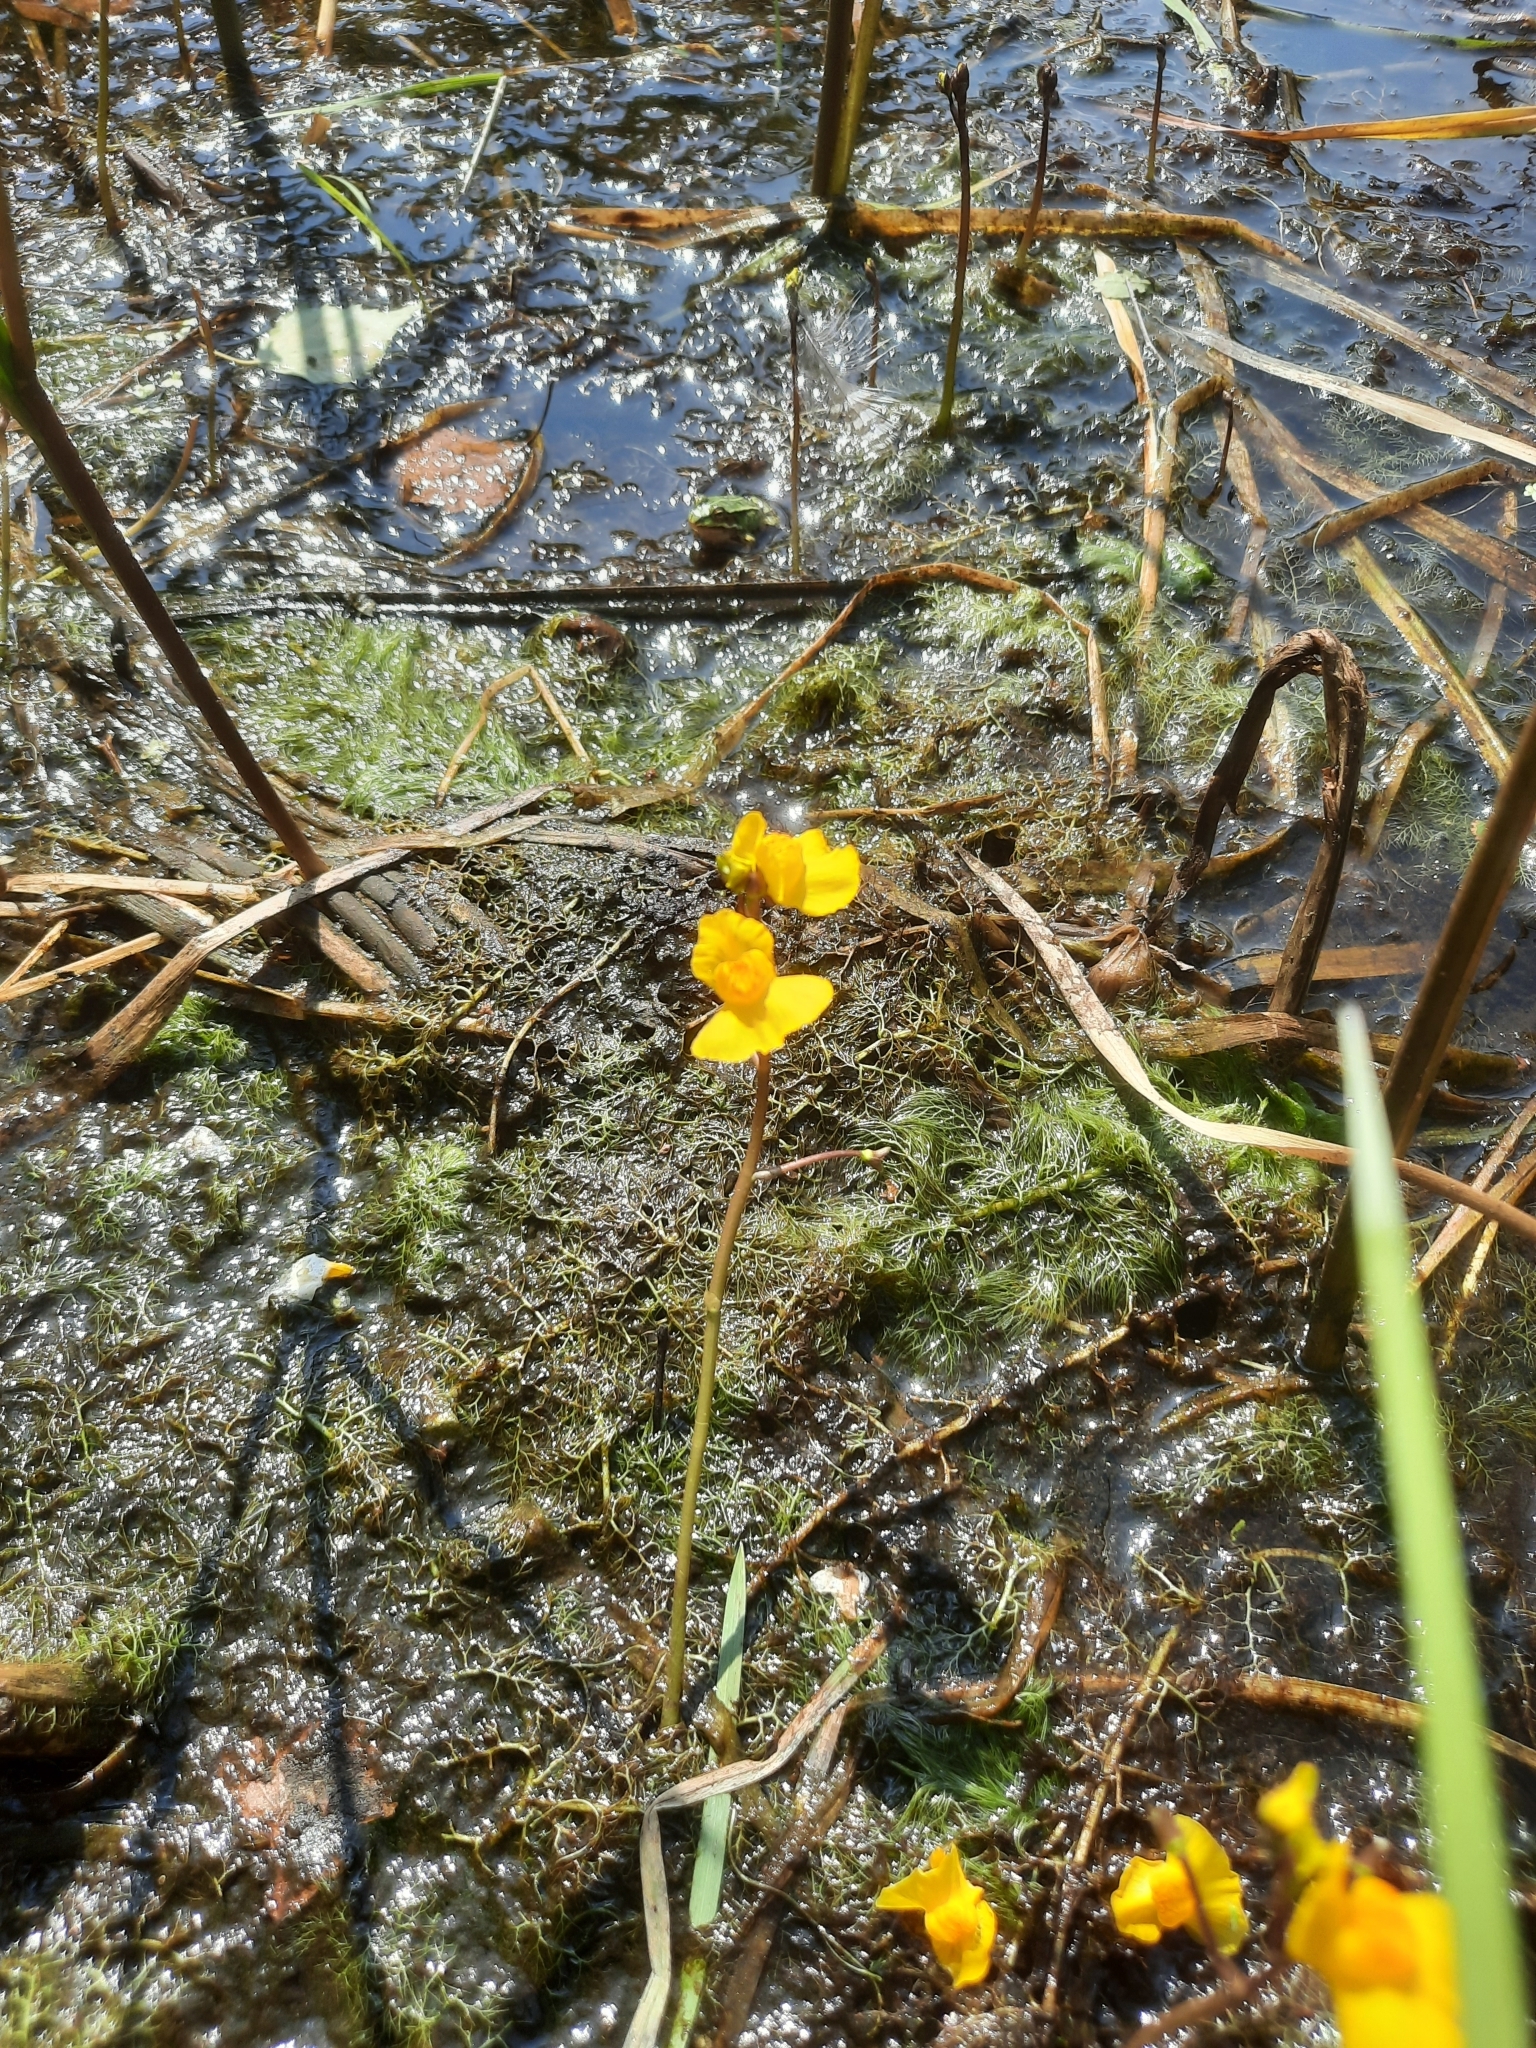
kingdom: Plantae
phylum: Tracheophyta
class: Magnoliopsida
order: Lamiales
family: Lentibulariaceae
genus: Utricularia
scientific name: Utricularia australis
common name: Bladderwort
